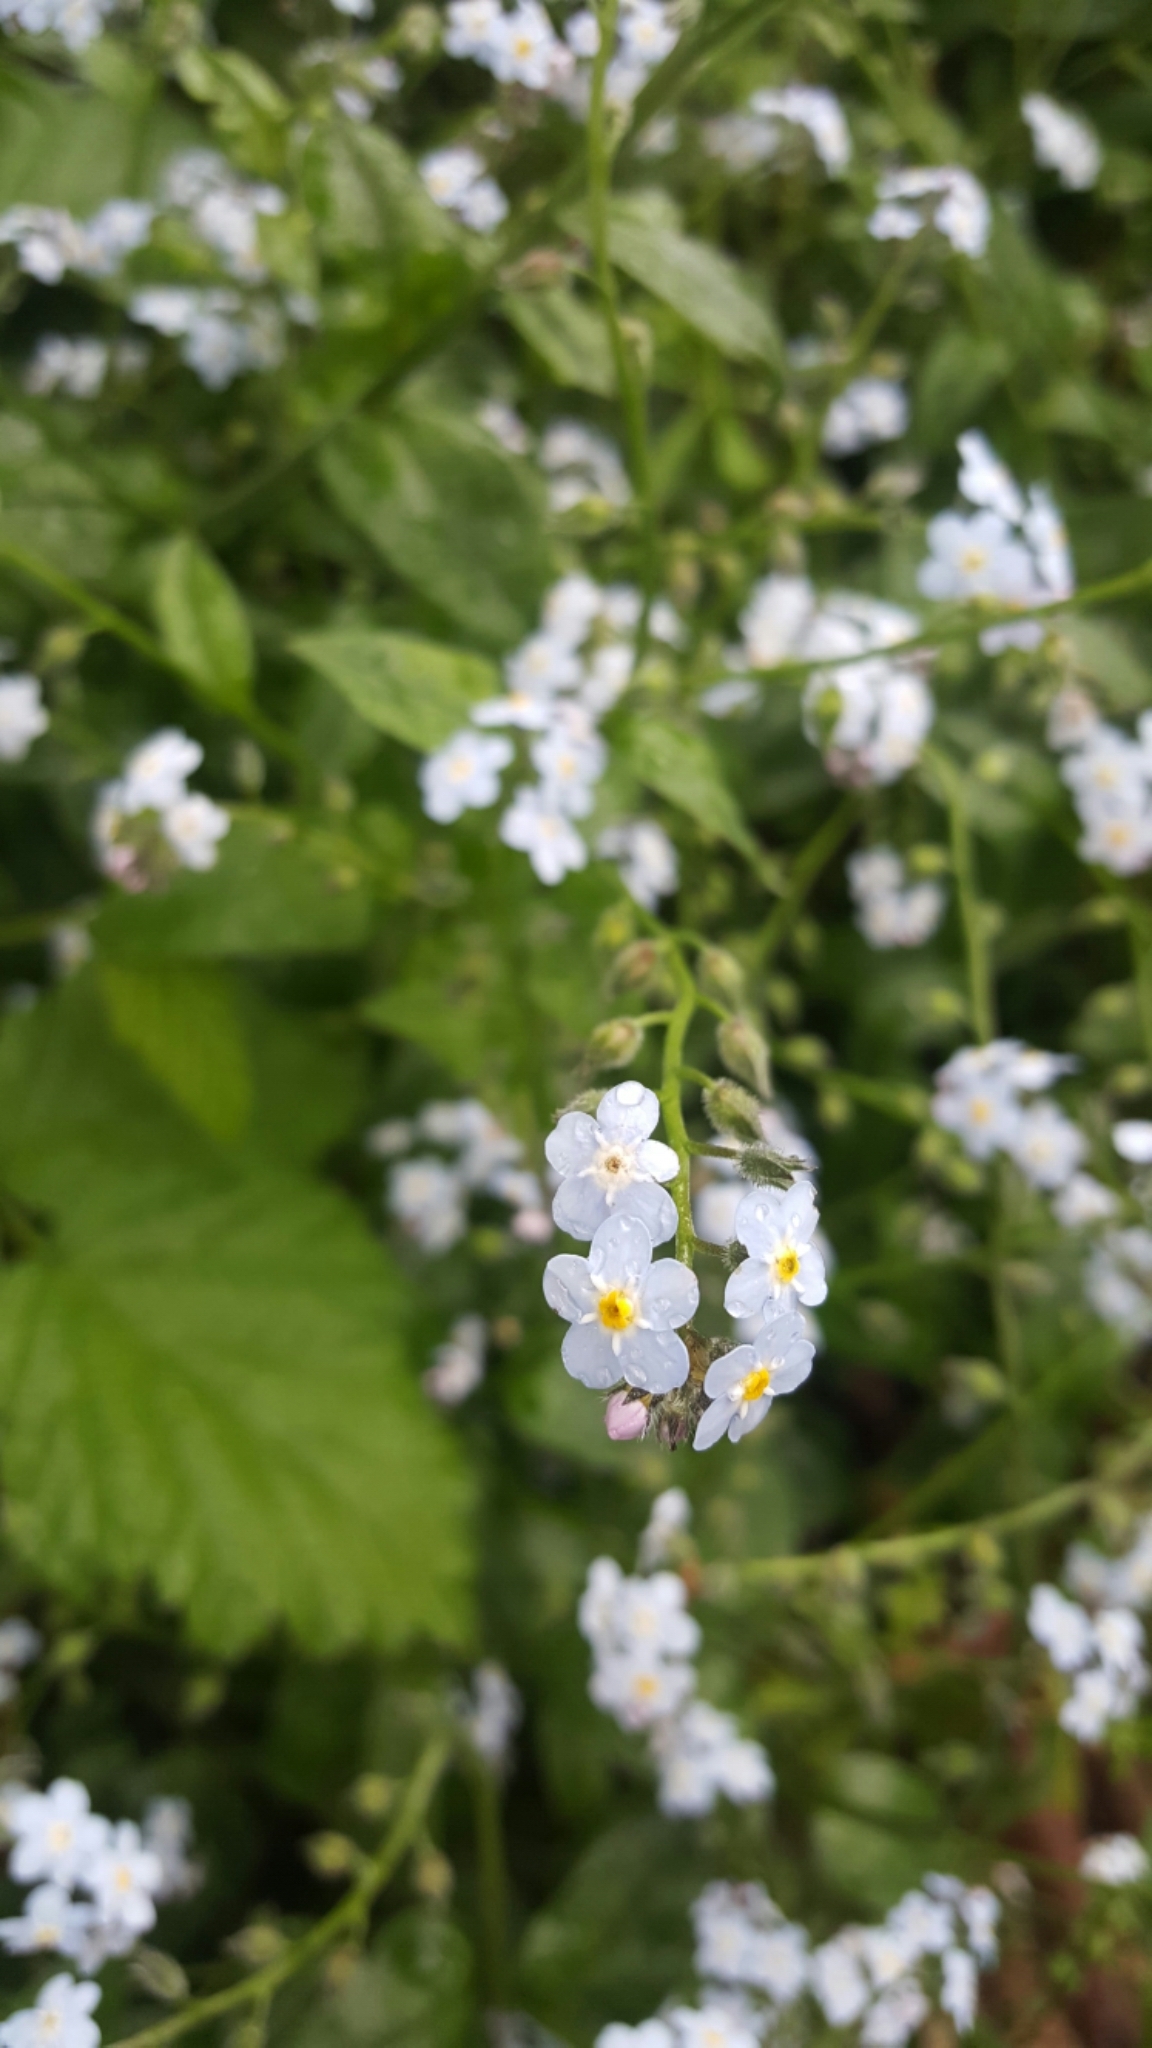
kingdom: Plantae
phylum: Tracheophyta
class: Magnoliopsida
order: Boraginales
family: Boraginaceae
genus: Myosotis
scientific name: Myosotis latifolia
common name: Broadleaf forget-me-not
